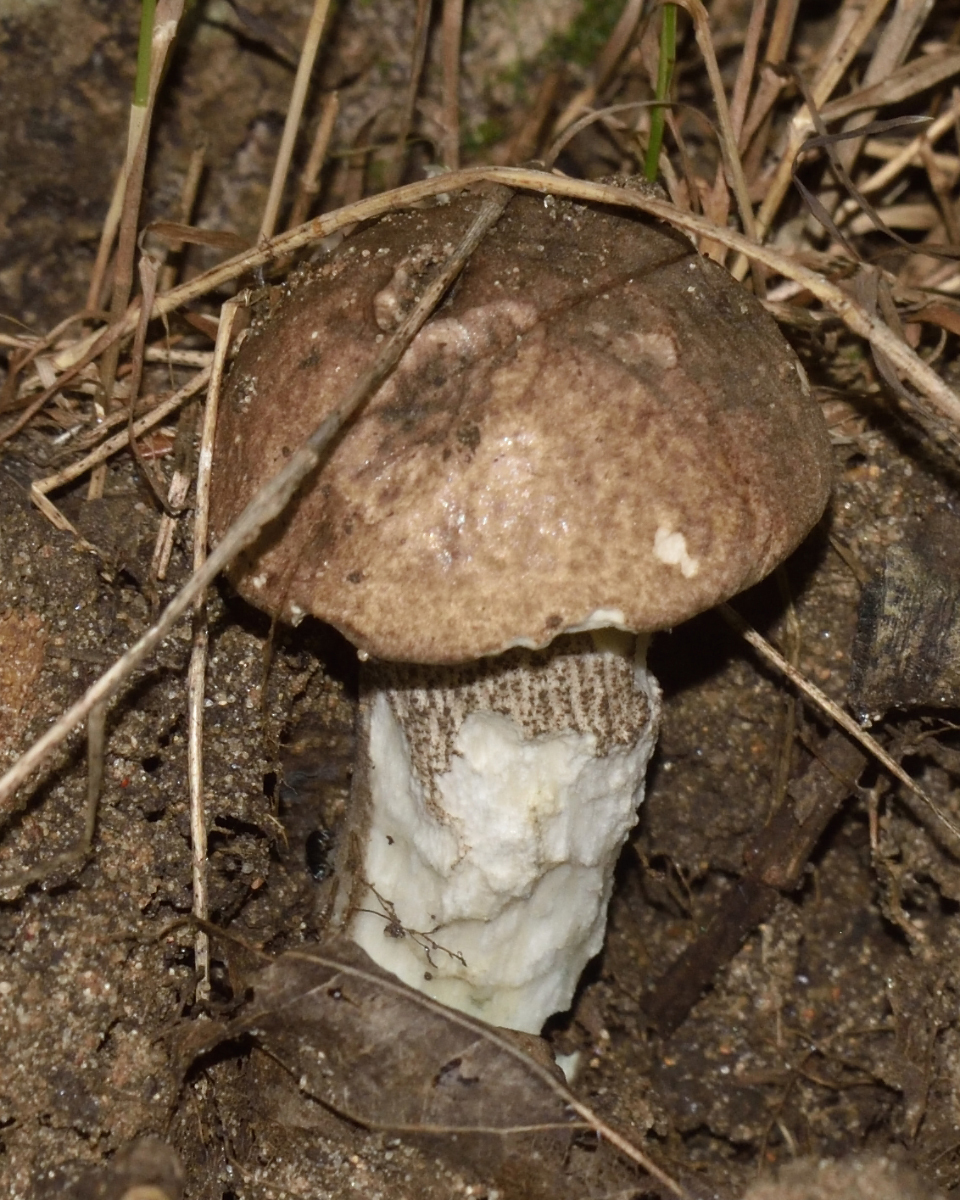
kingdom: Fungi
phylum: Basidiomycota
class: Agaricomycetes
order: Boletales
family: Boletaceae
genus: Leccinum
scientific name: Leccinum duriusculum
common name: Slate bolete
